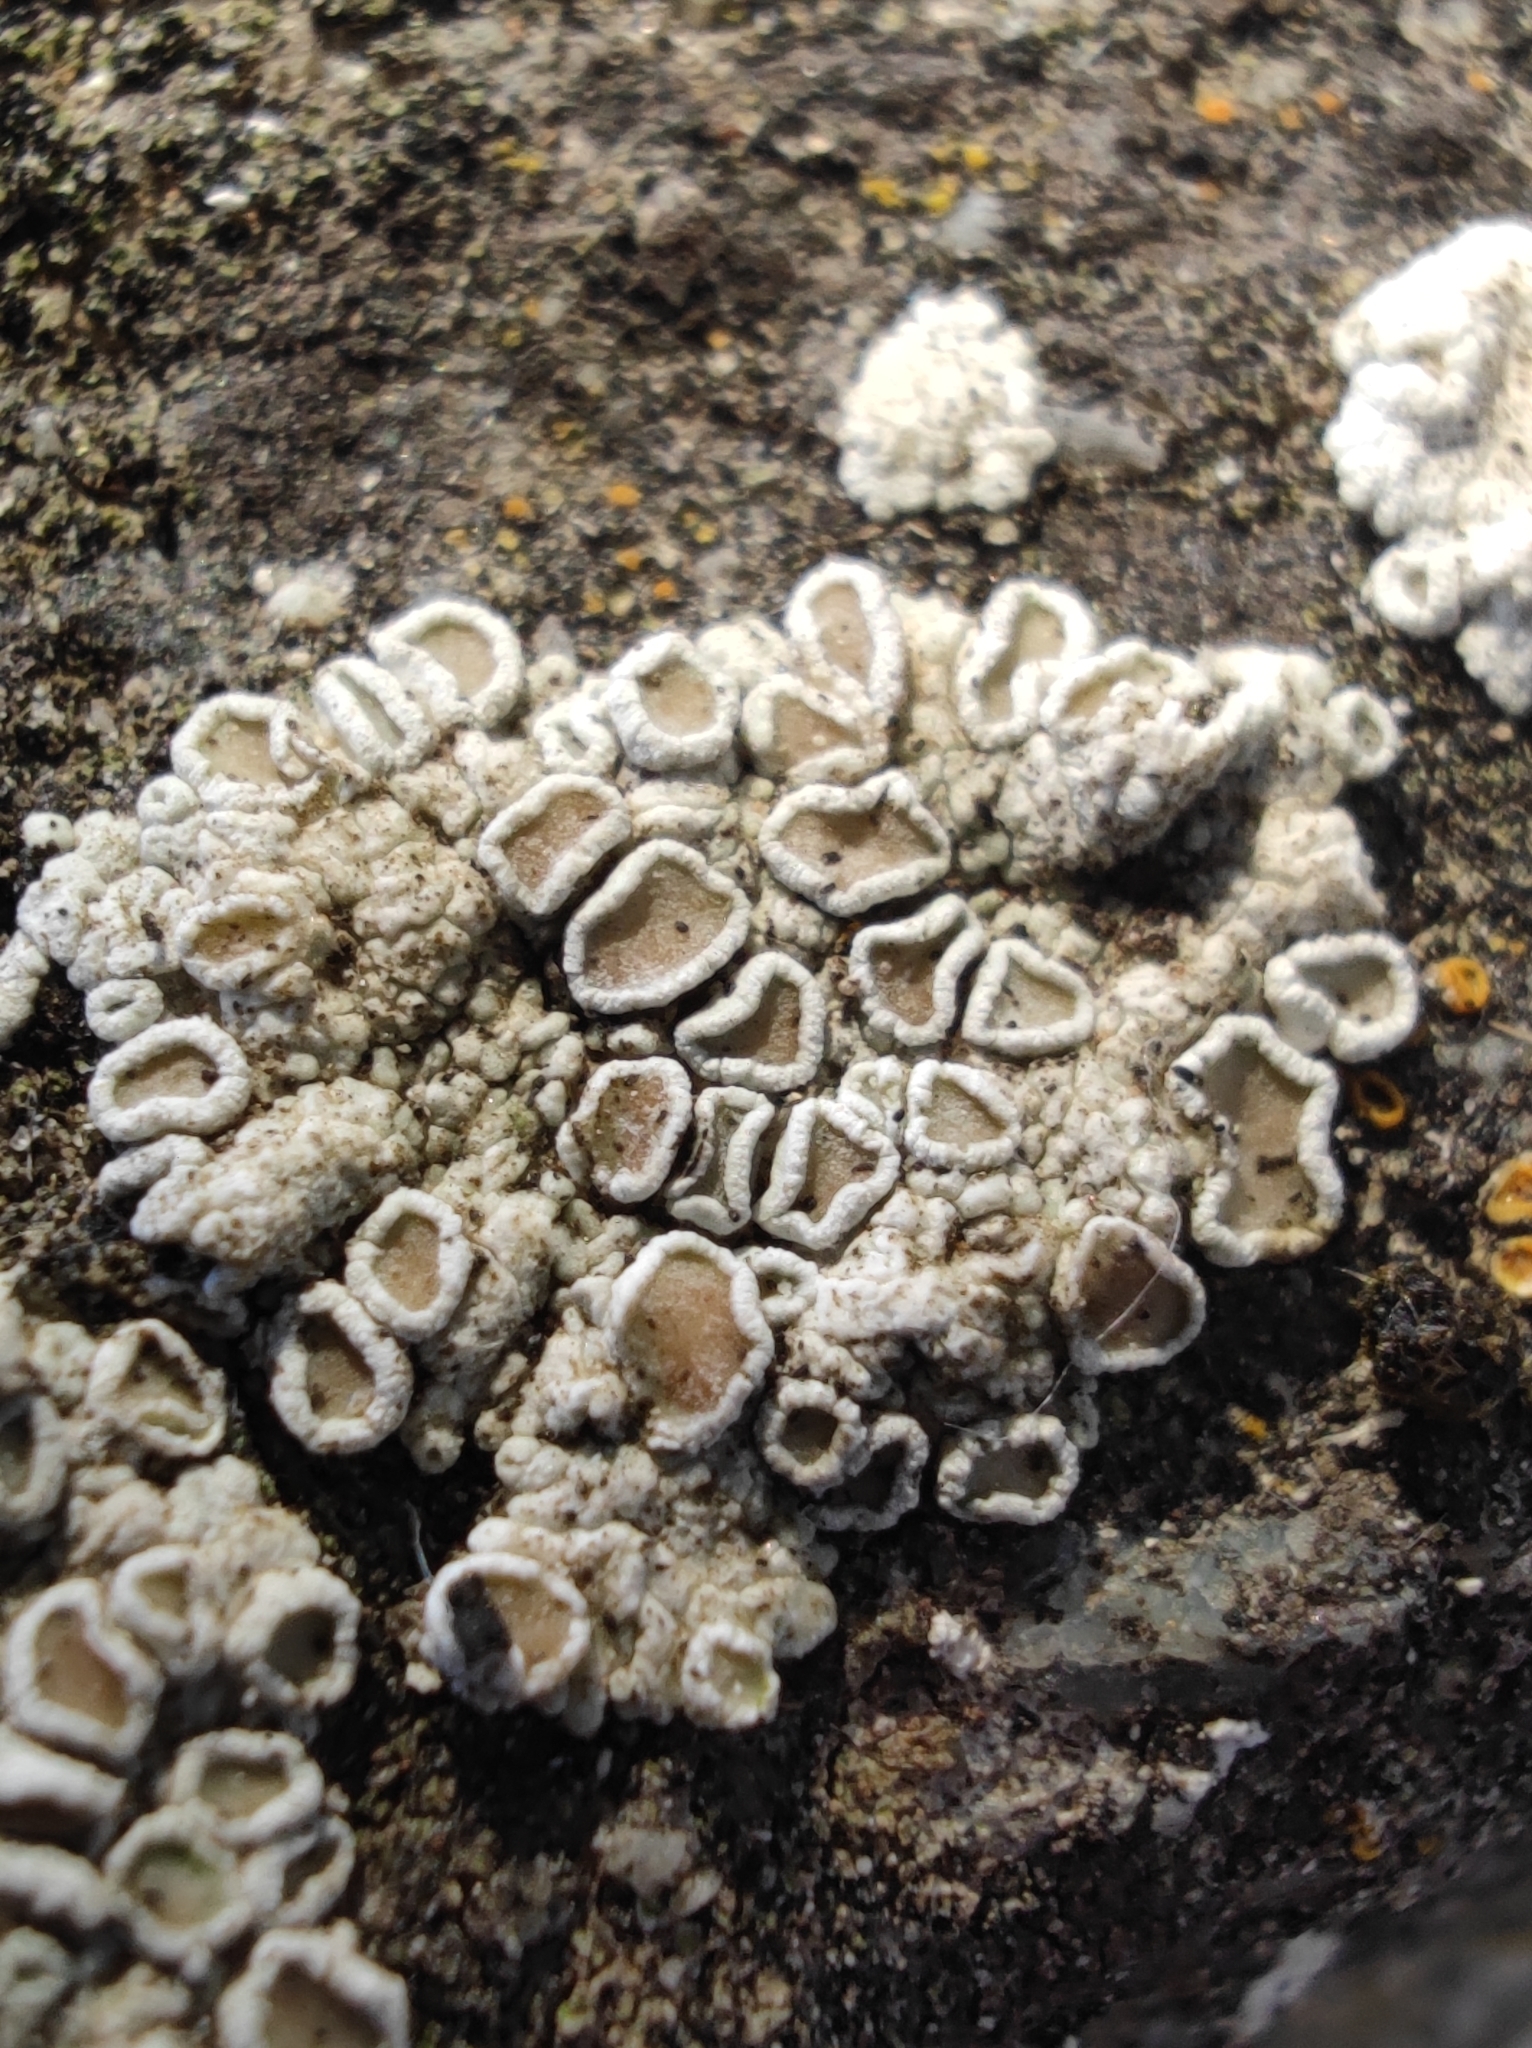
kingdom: Fungi
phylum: Ascomycota
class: Lecanoromycetes
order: Lecanorales
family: Lecanoraceae
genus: Polyozosia
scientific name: Polyozosia albescens
